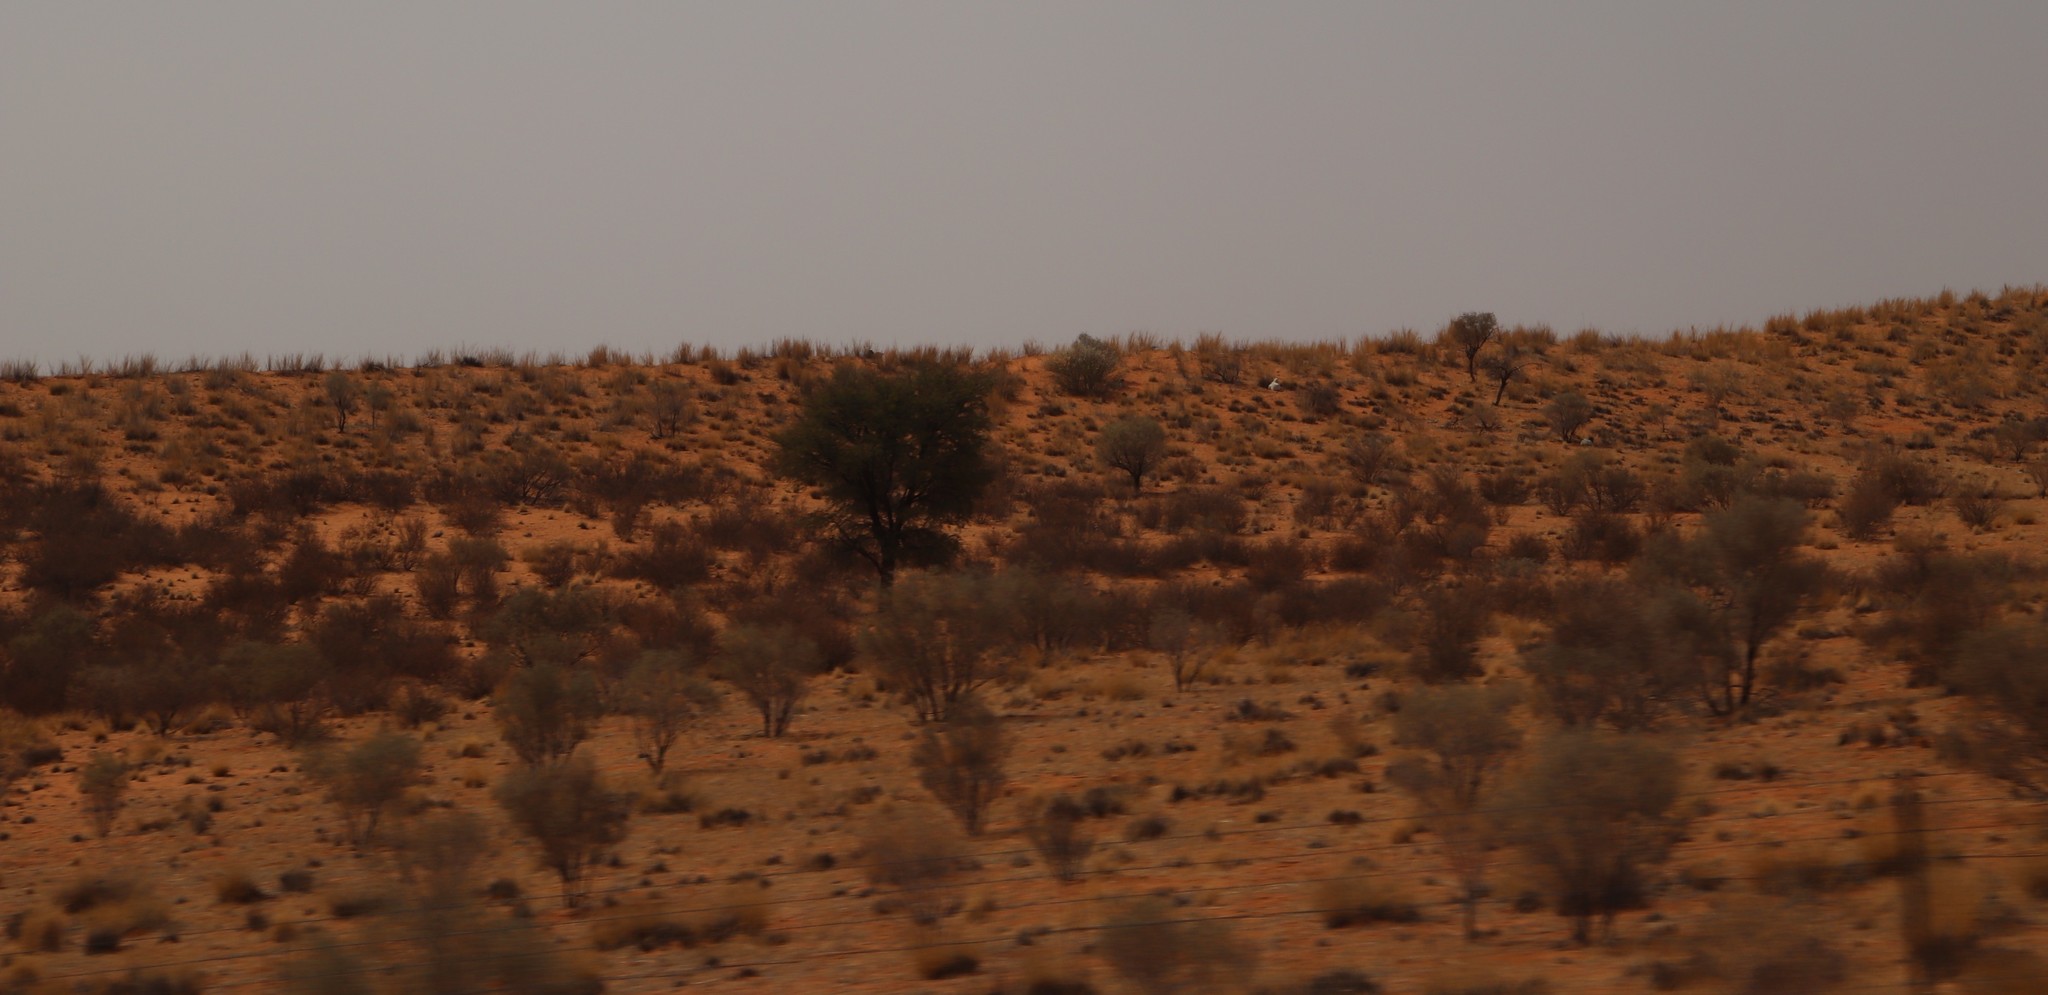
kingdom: Plantae
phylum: Tracheophyta
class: Magnoliopsida
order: Fabales
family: Fabaceae
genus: Vachellia
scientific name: Vachellia erioloba
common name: Camel thorn
